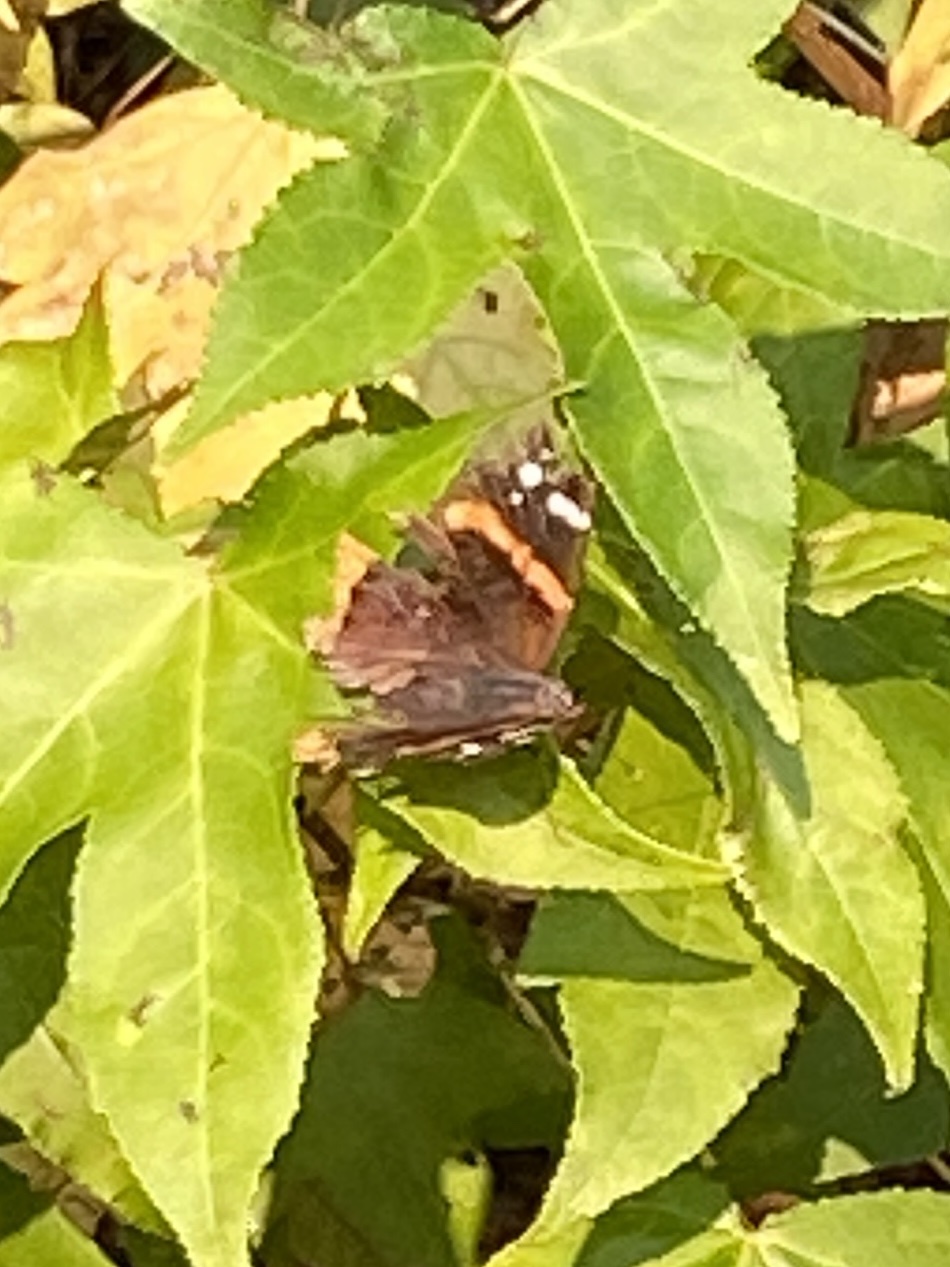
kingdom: Animalia
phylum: Arthropoda
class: Insecta
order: Lepidoptera
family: Nymphalidae
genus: Vanessa
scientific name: Vanessa atalanta
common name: Red admiral
